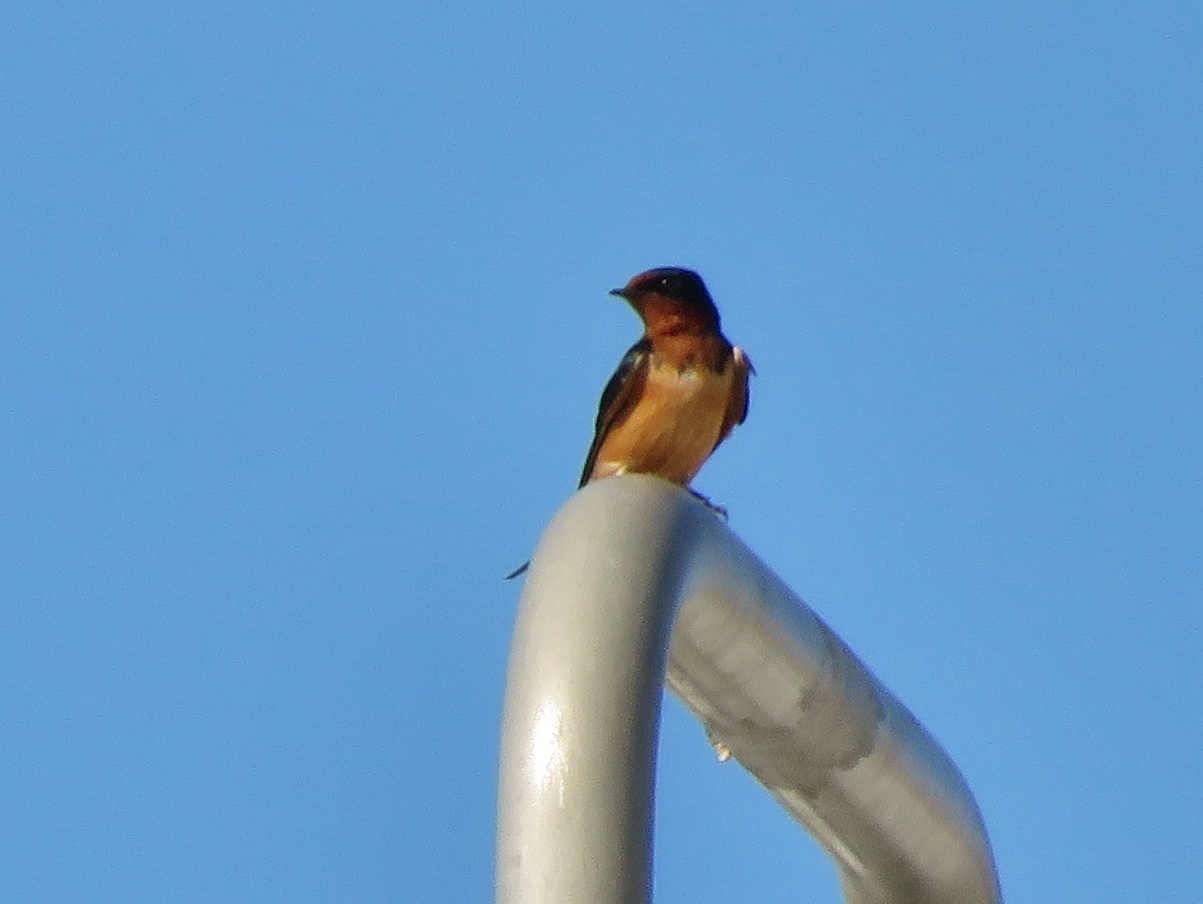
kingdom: Animalia
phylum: Chordata
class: Aves
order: Passeriformes
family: Hirundinidae
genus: Hirundo
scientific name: Hirundo rustica
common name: Barn swallow
